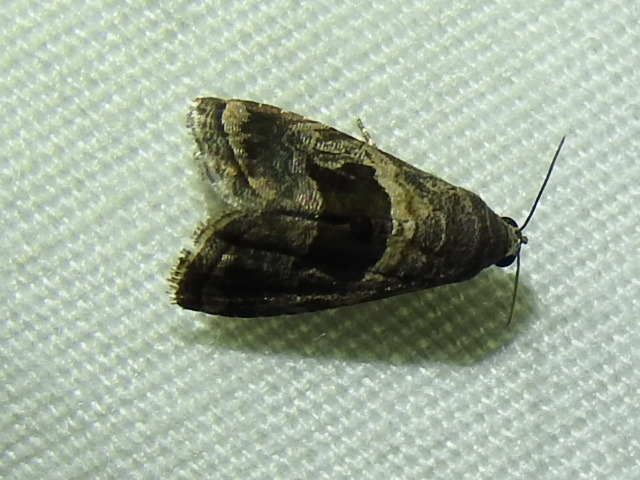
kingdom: Animalia
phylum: Arthropoda
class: Insecta
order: Lepidoptera
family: Noctuidae
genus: Tripudia
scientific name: Tripudia quadrifera
